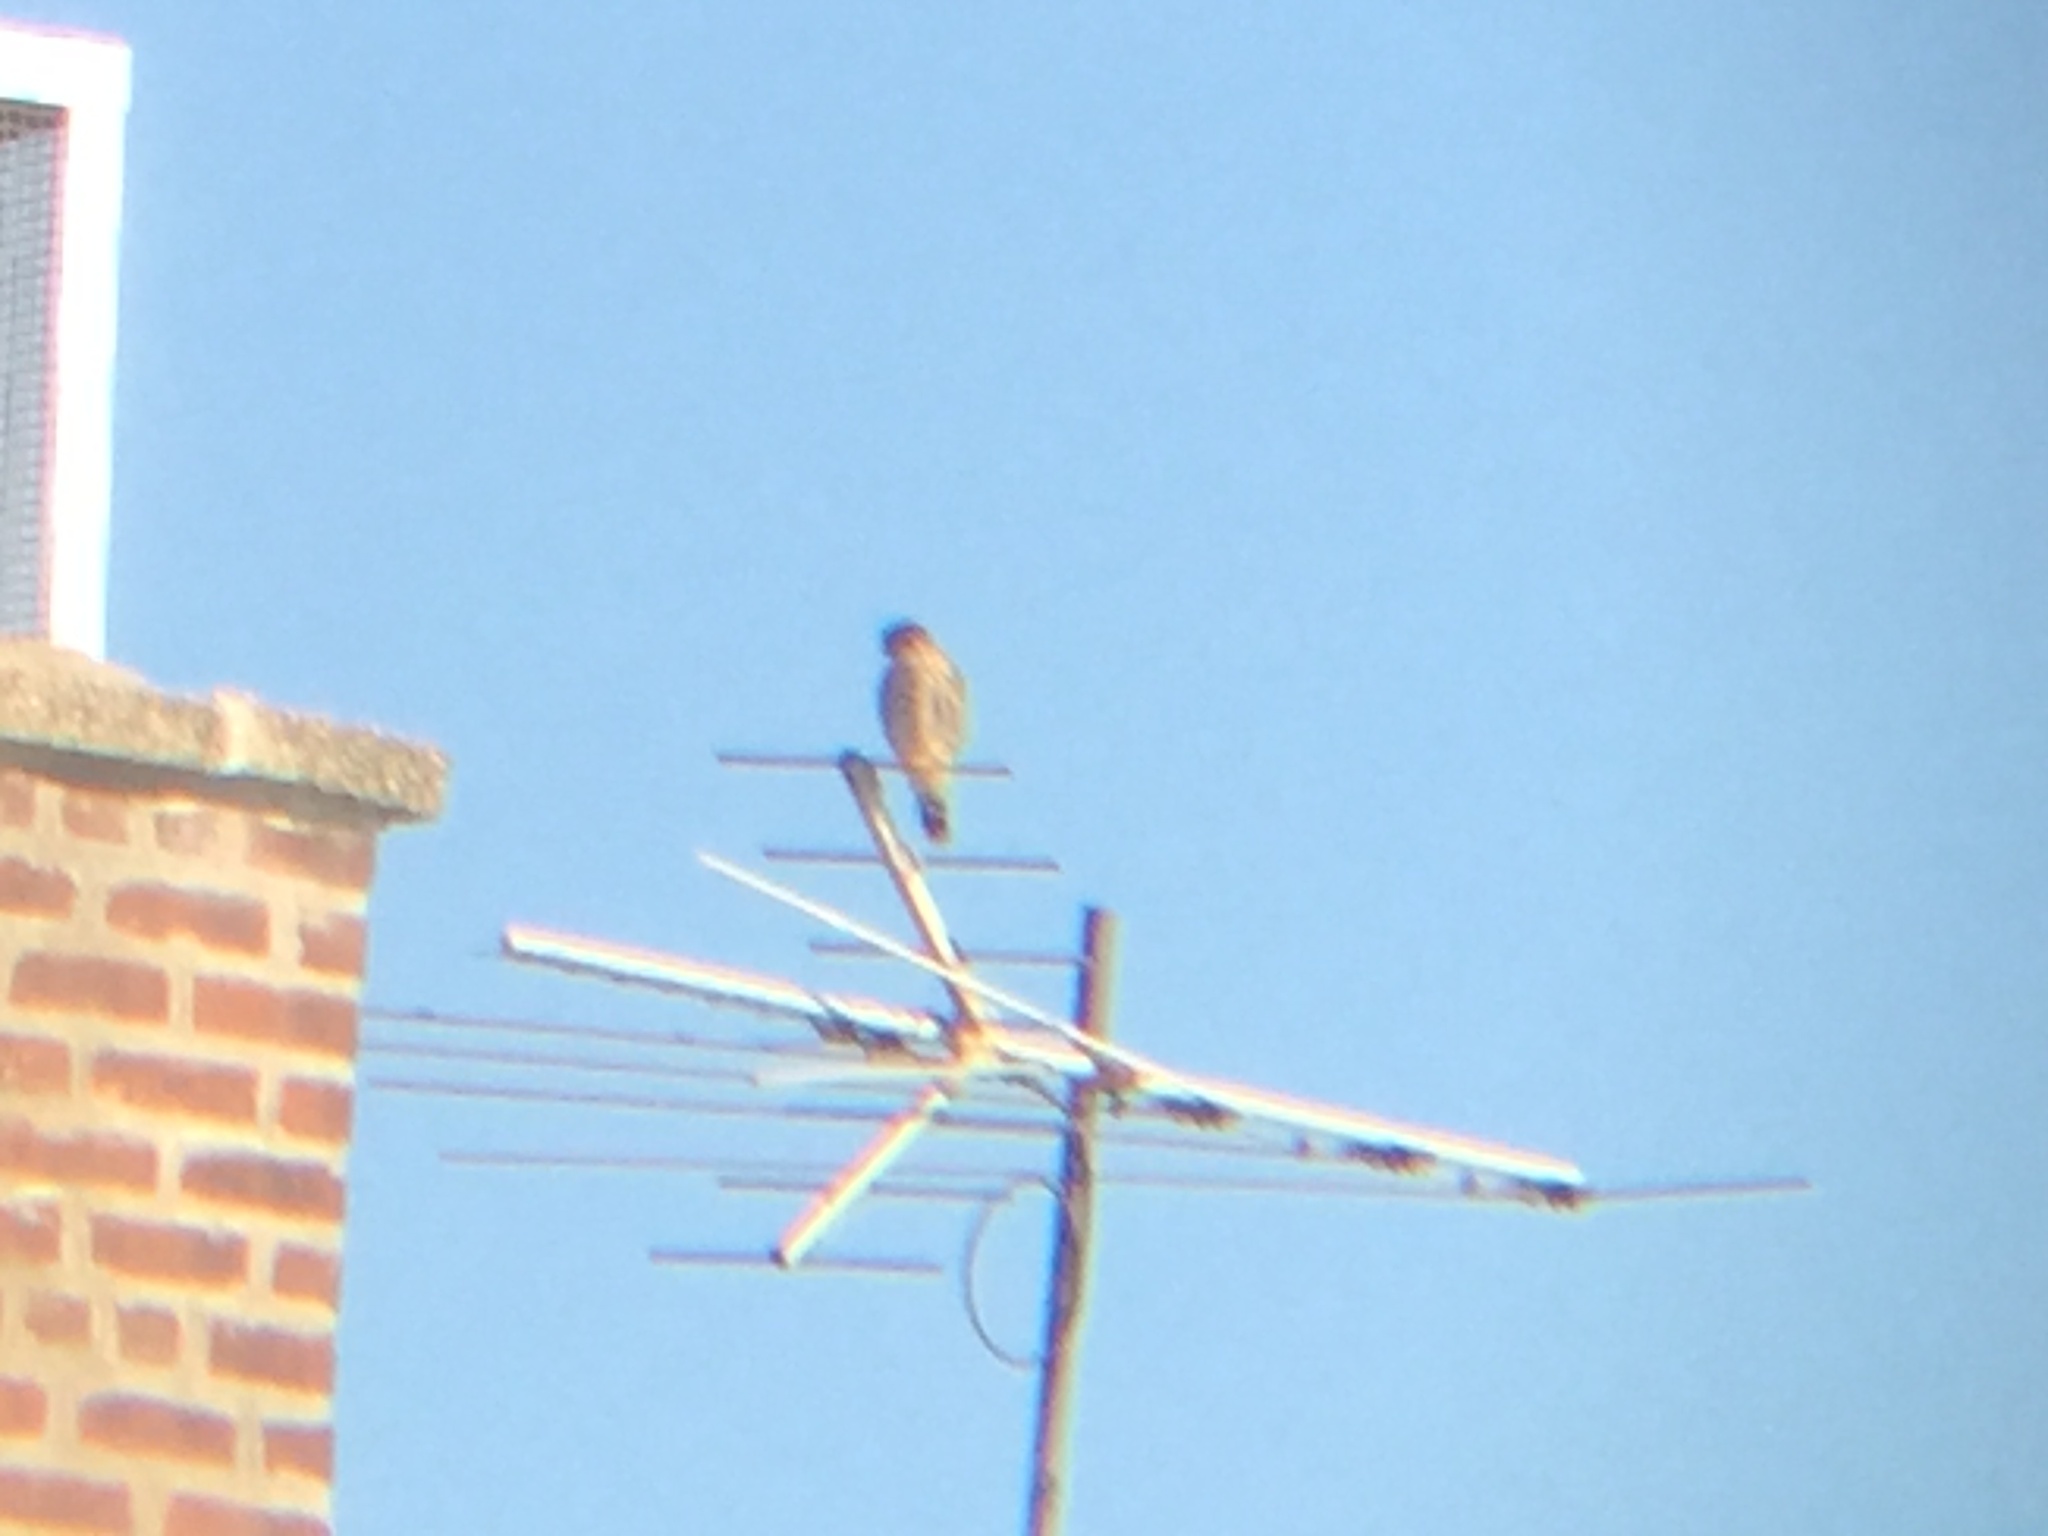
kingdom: Animalia
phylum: Chordata
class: Aves
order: Falconiformes
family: Falconidae
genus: Falco
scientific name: Falco sparverius
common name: American kestrel
